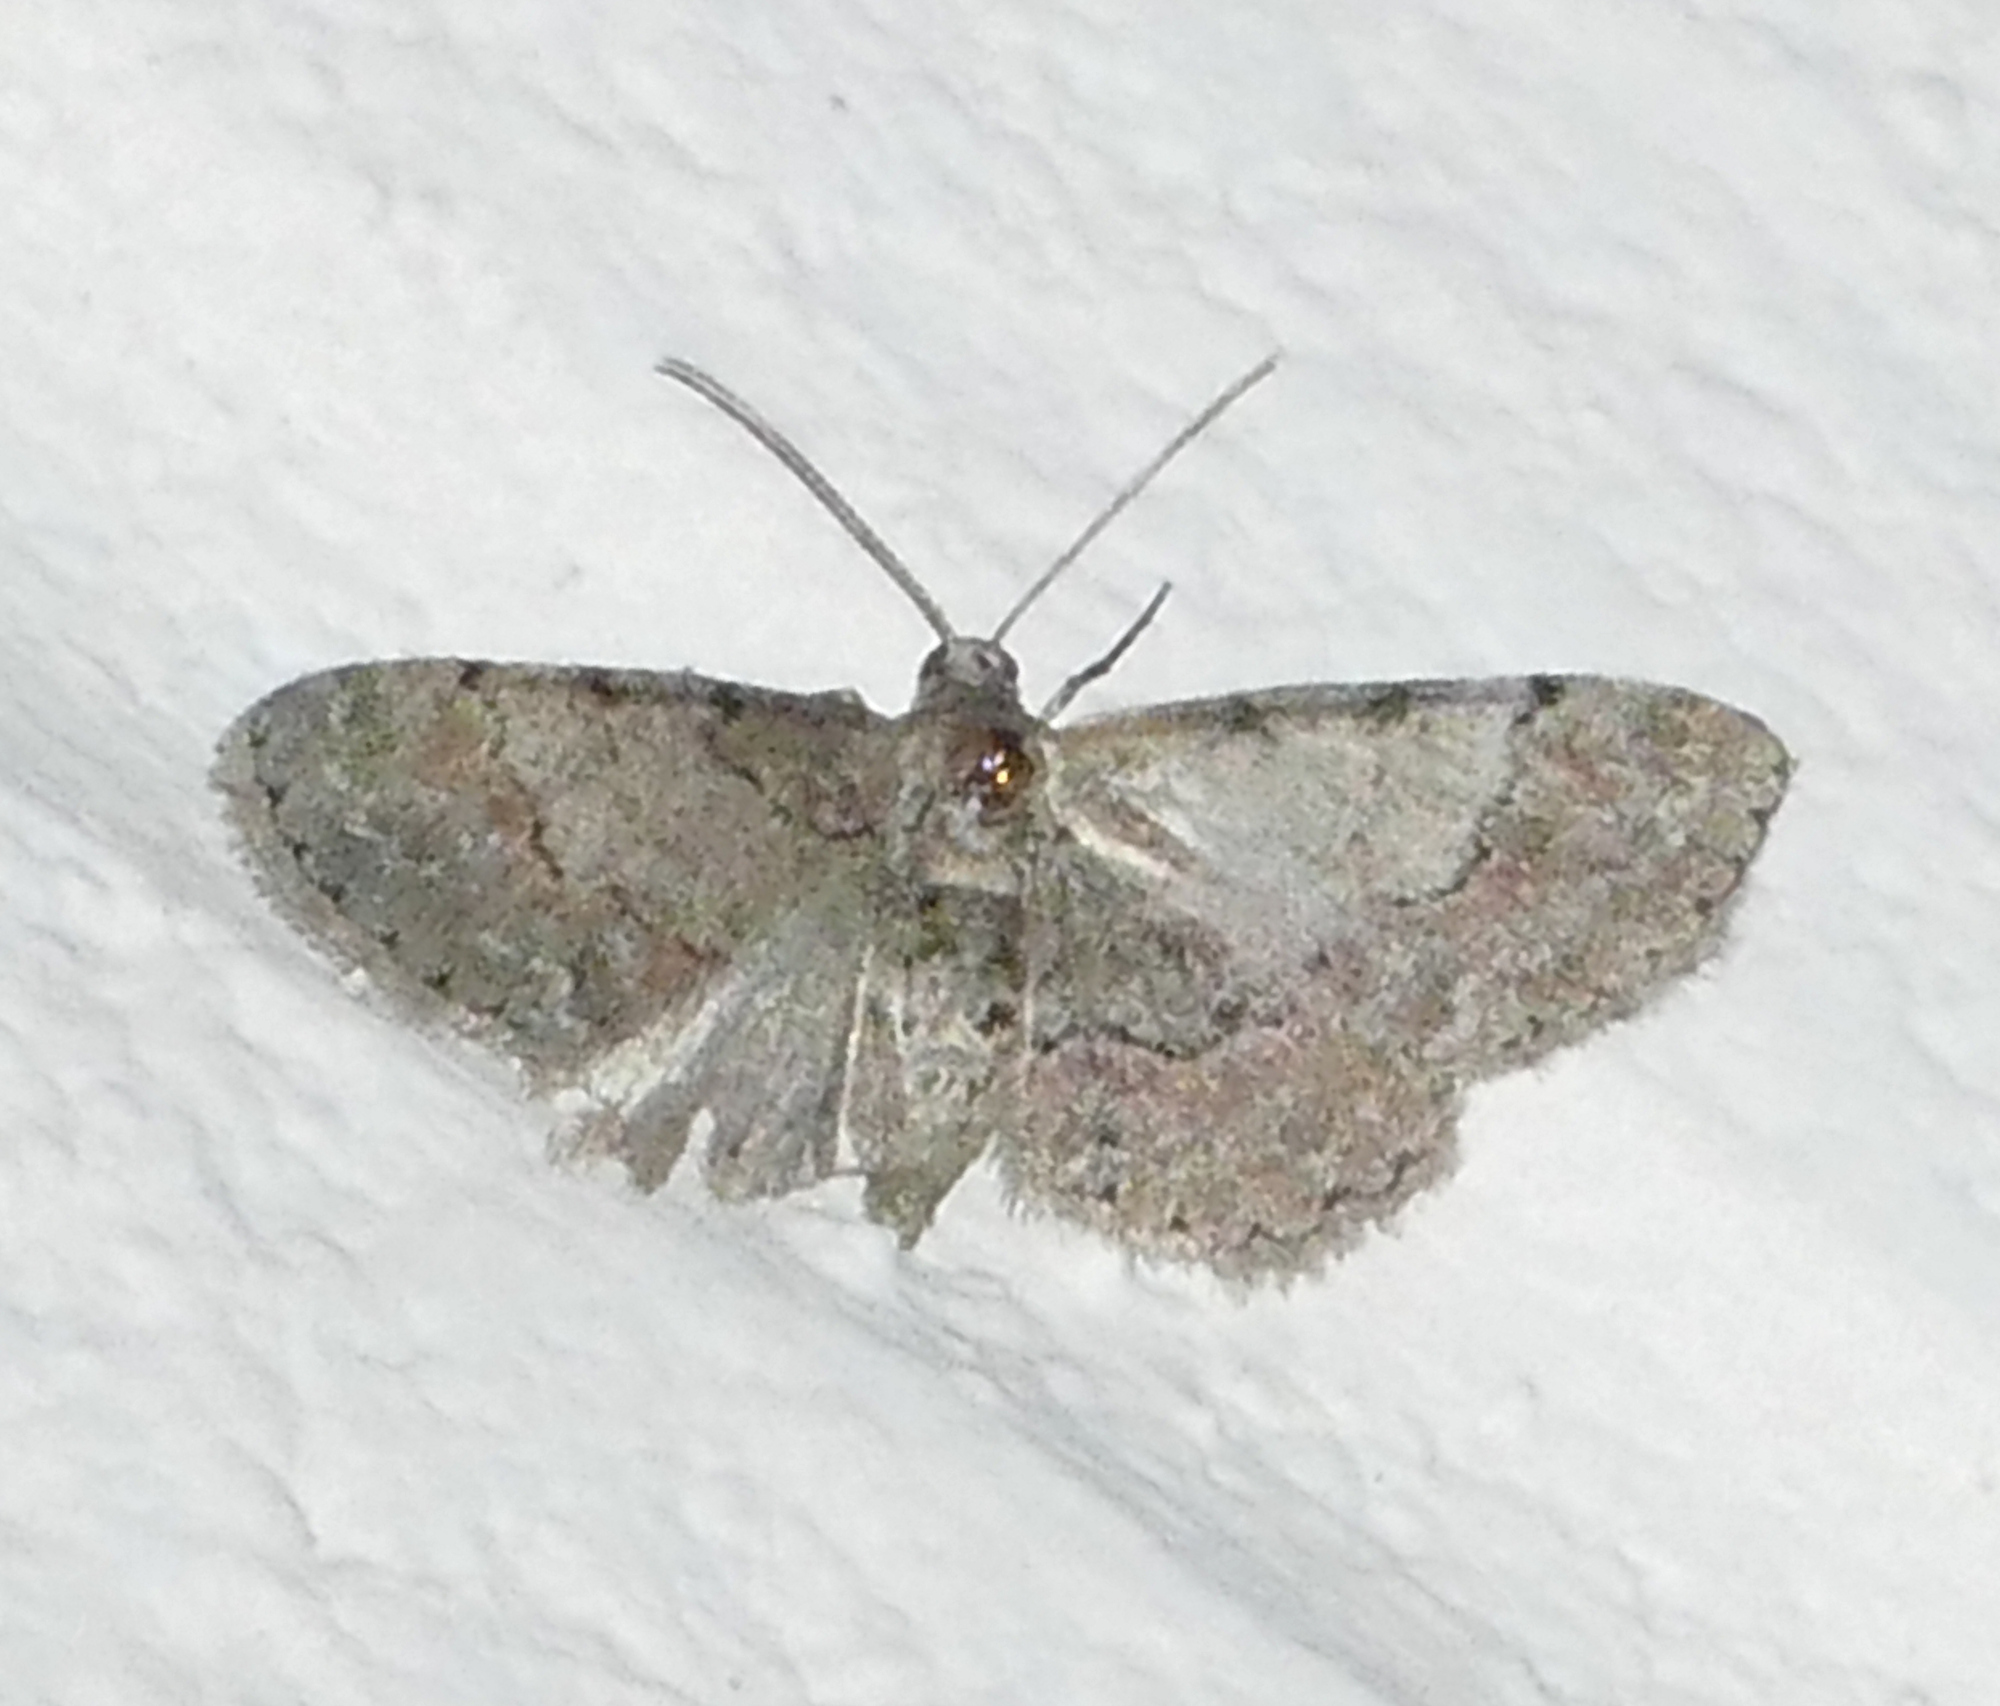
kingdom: Animalia
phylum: Arthropoda
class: Insecta
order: Lepidoptera
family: Geometridae
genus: Glenoides
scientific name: Glenoides texanaria
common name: Texas gray
